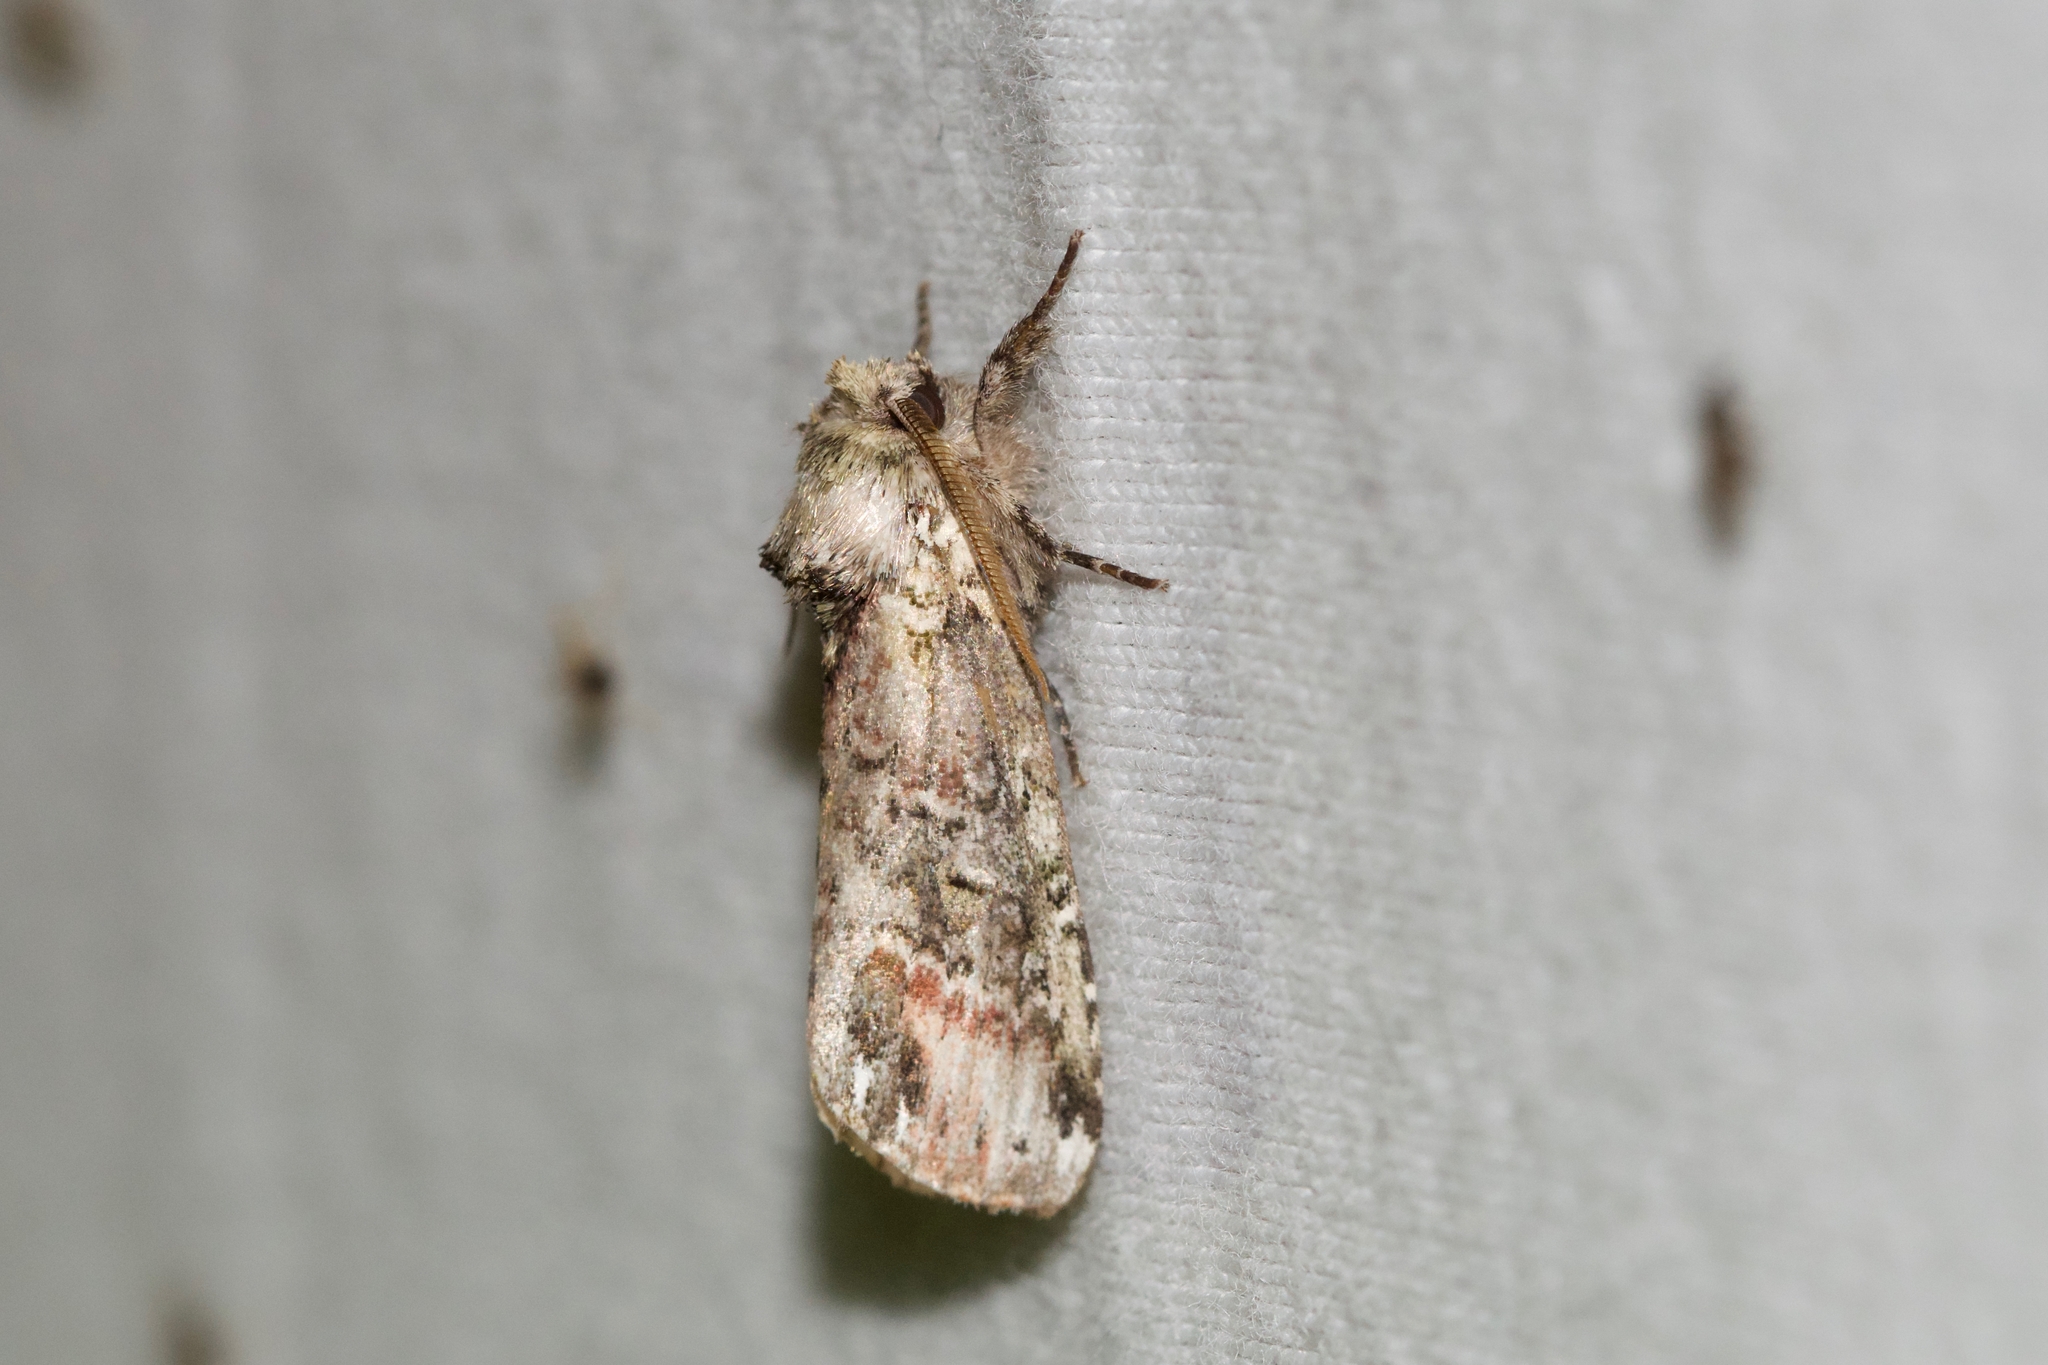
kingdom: Animalia
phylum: Arthropoda
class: Insecta
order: Lepidoptera
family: Notodontidae
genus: Schizura
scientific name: Schizura
